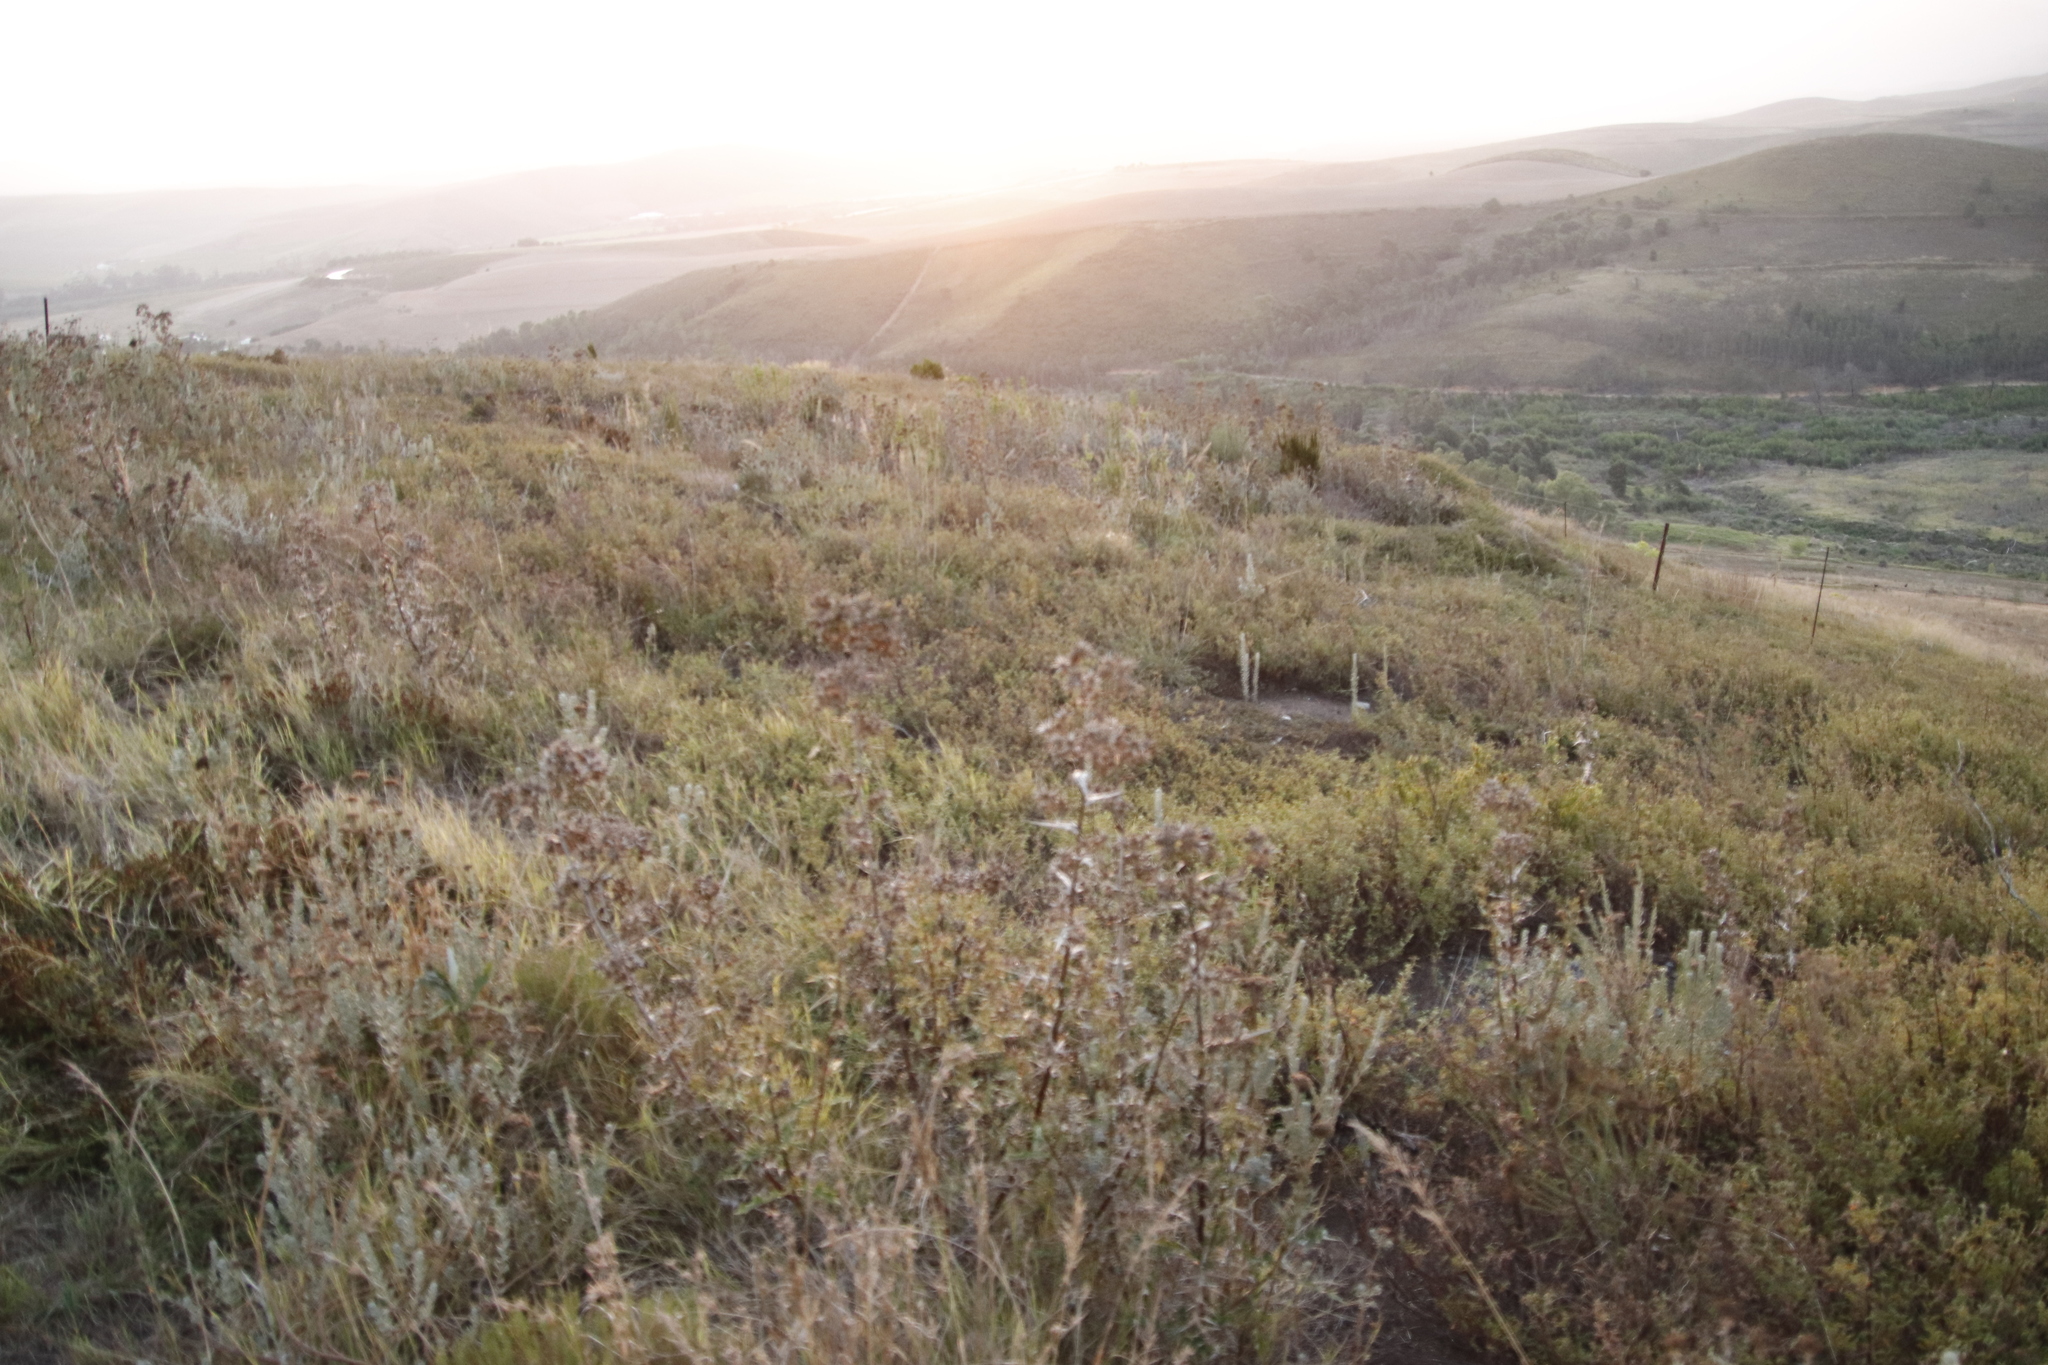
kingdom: Plantae
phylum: Tracheophyta
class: Magnoliopsida
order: Asterales
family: Asteraceae
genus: Berkheya
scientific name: Berkheya rigida
